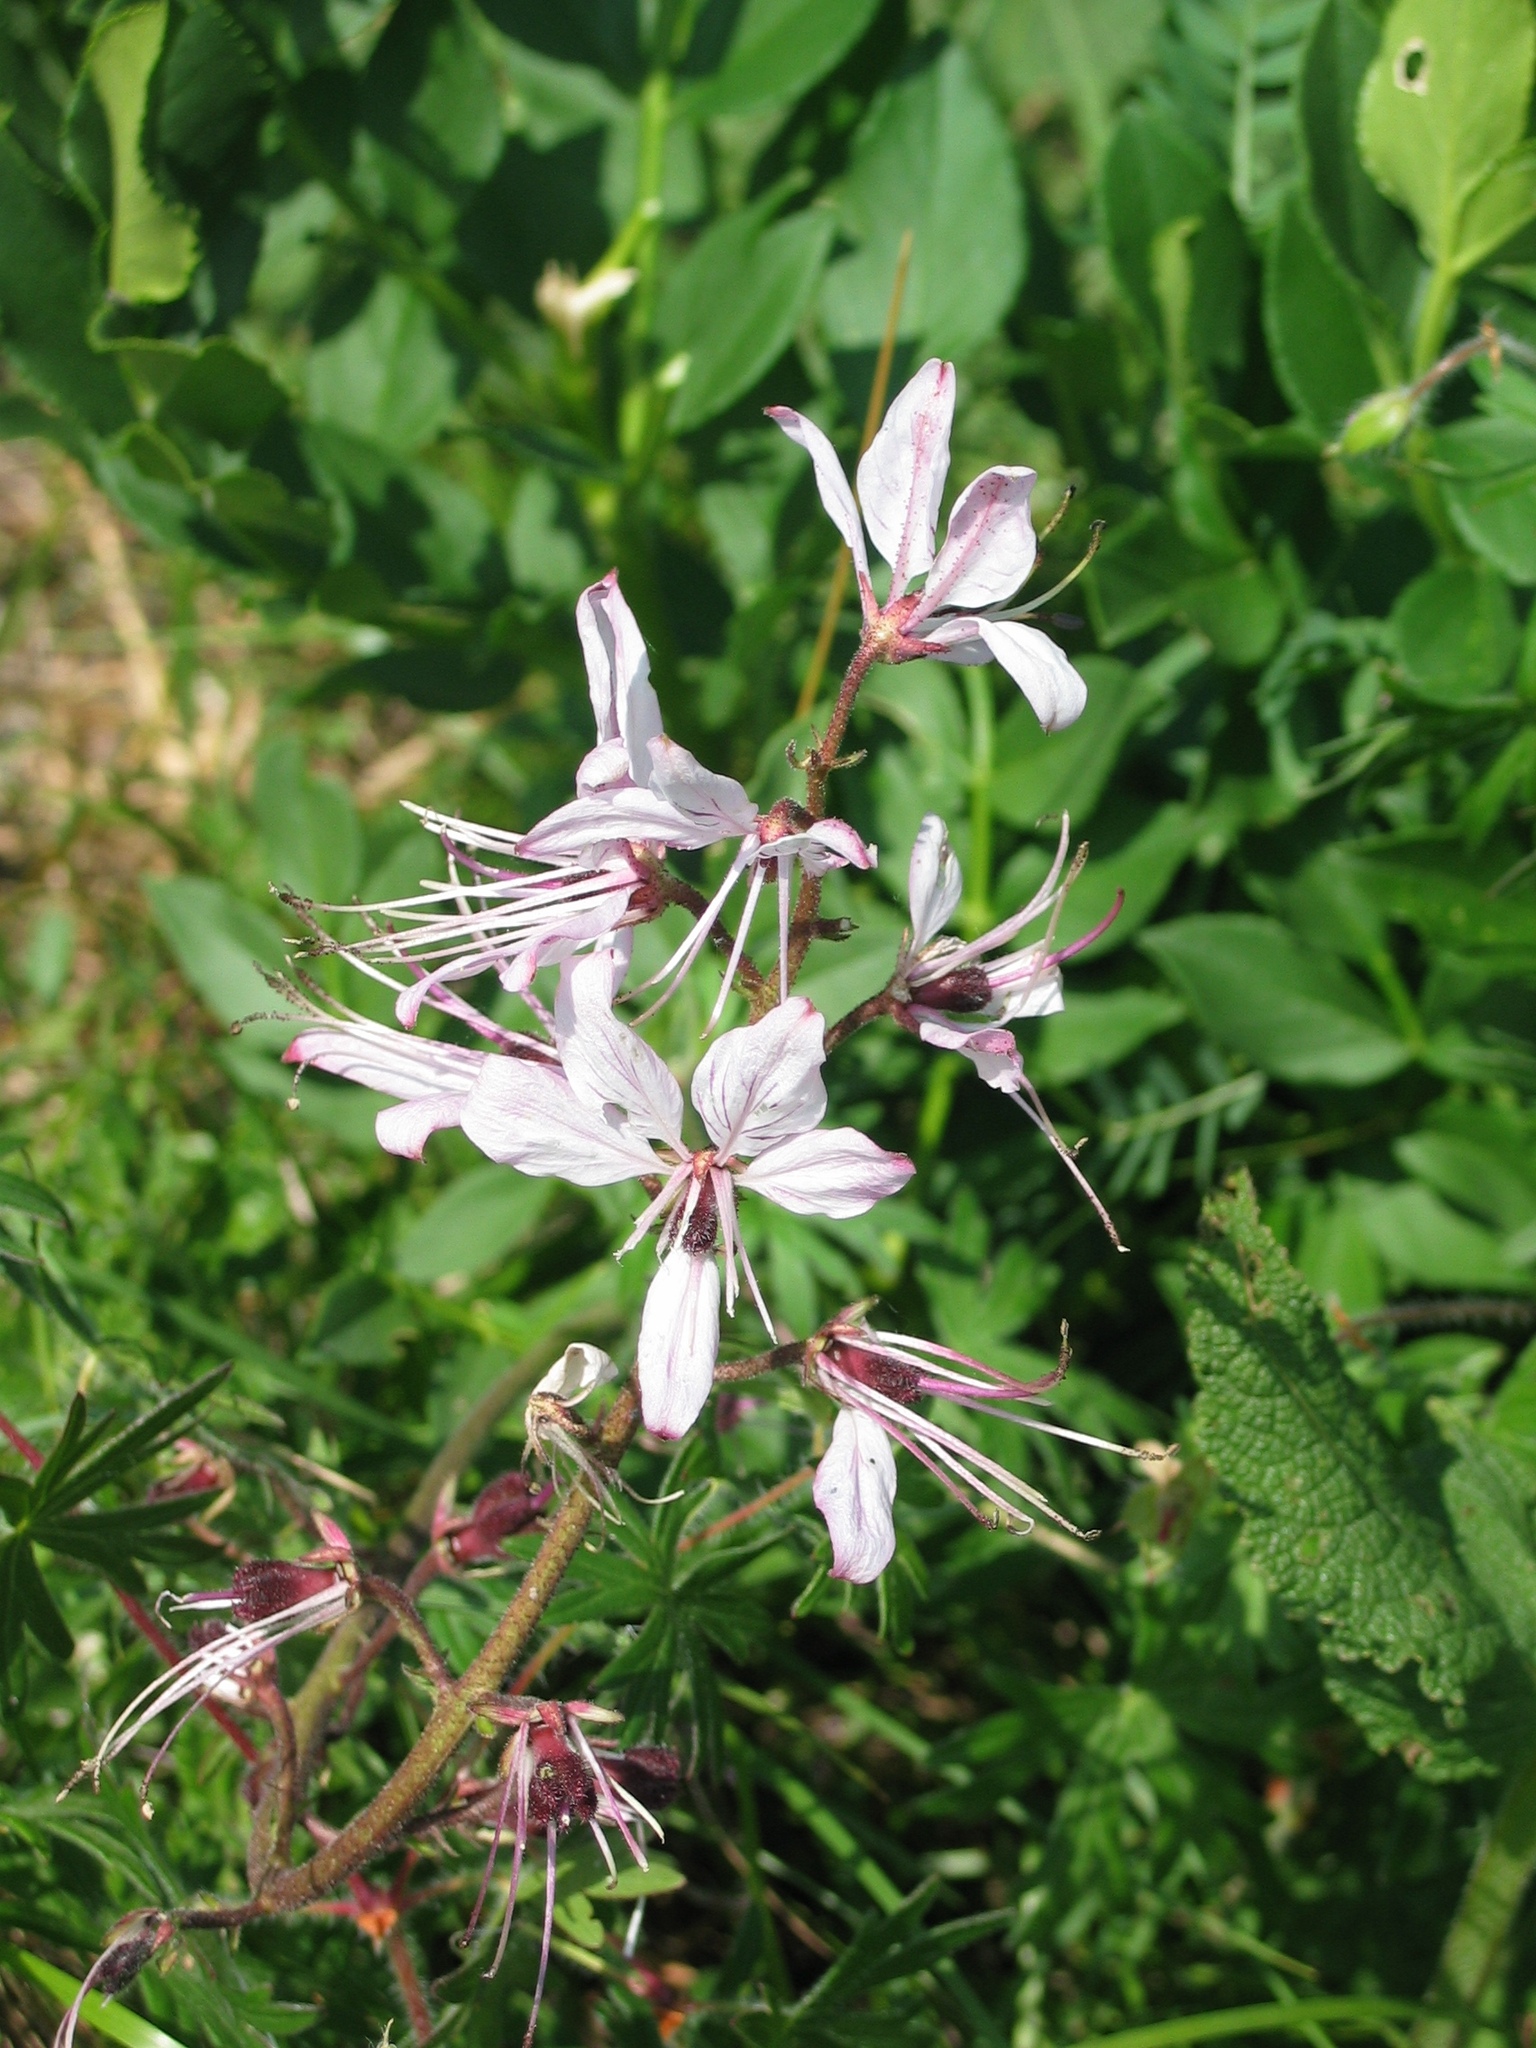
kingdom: Plantae
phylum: Tracheophyta
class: Magnoliopsida
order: Sapindales
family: Rutaceae
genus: Dictamnus
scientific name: Dictamnus albus
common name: Gasplant
